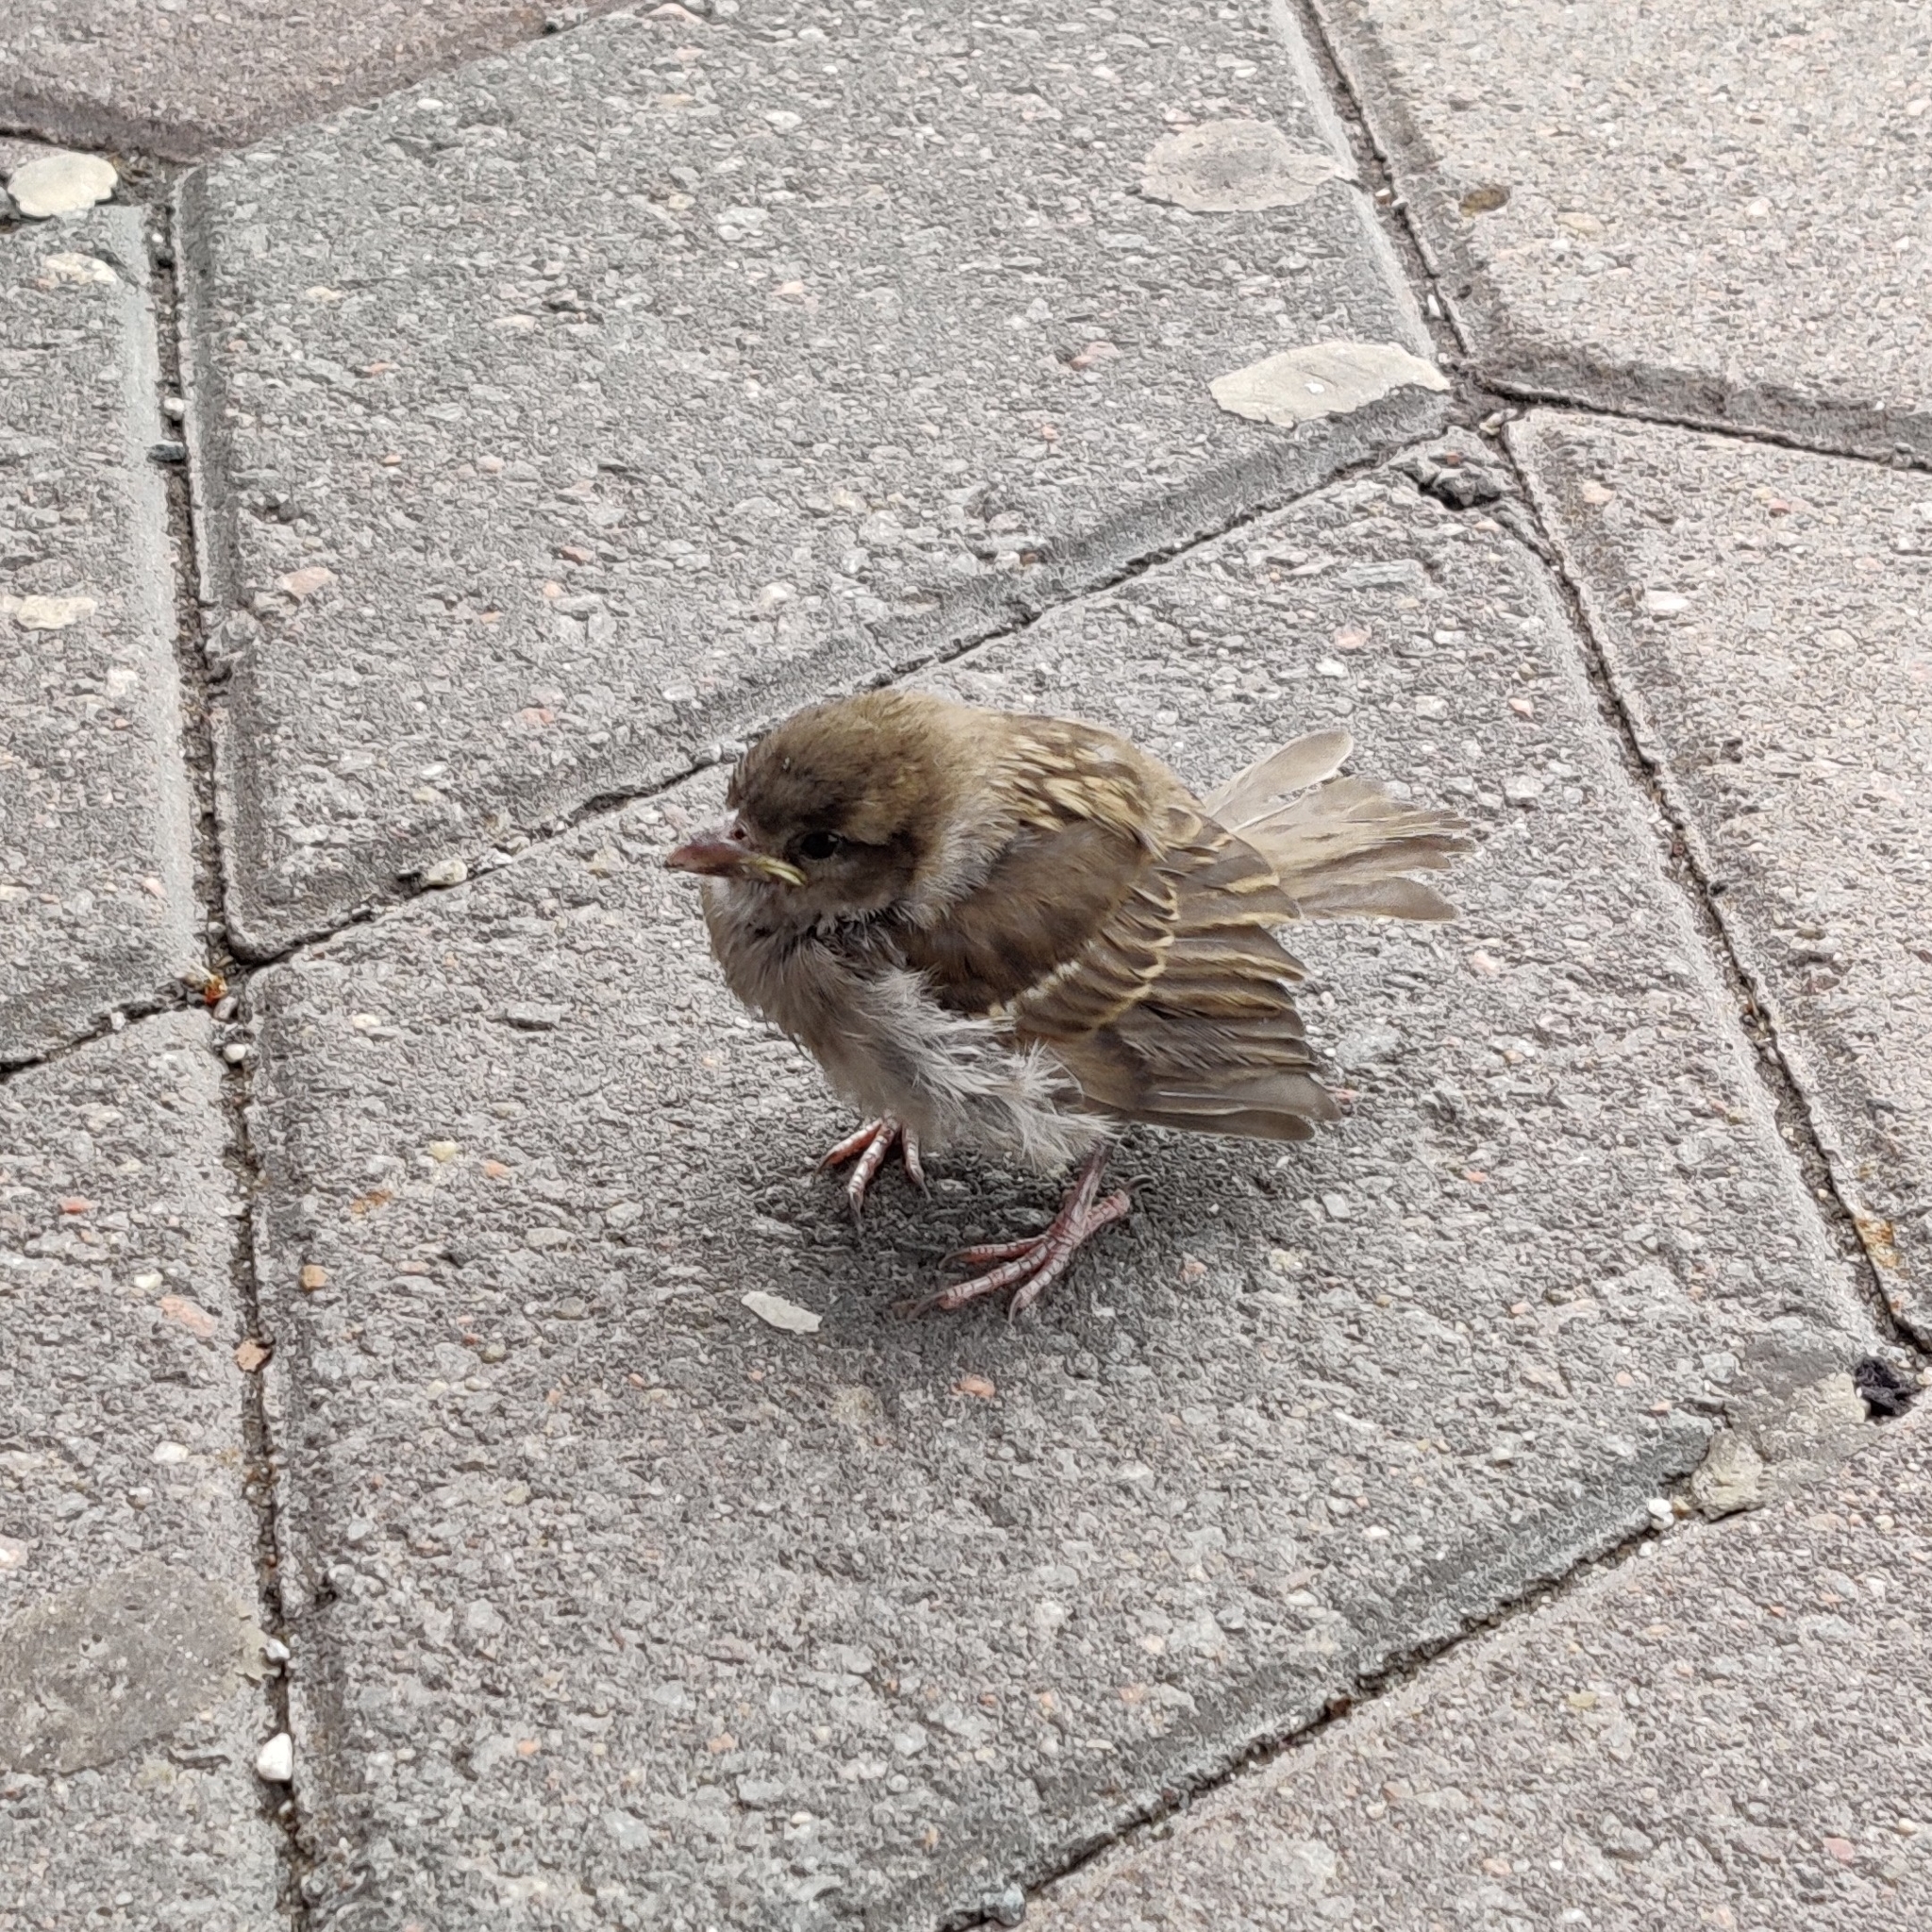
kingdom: Animalia
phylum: Chordata
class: Aves
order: Passeriformes
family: Passeridae
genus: Passer
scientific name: Passer domesticus
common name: House sparrow
